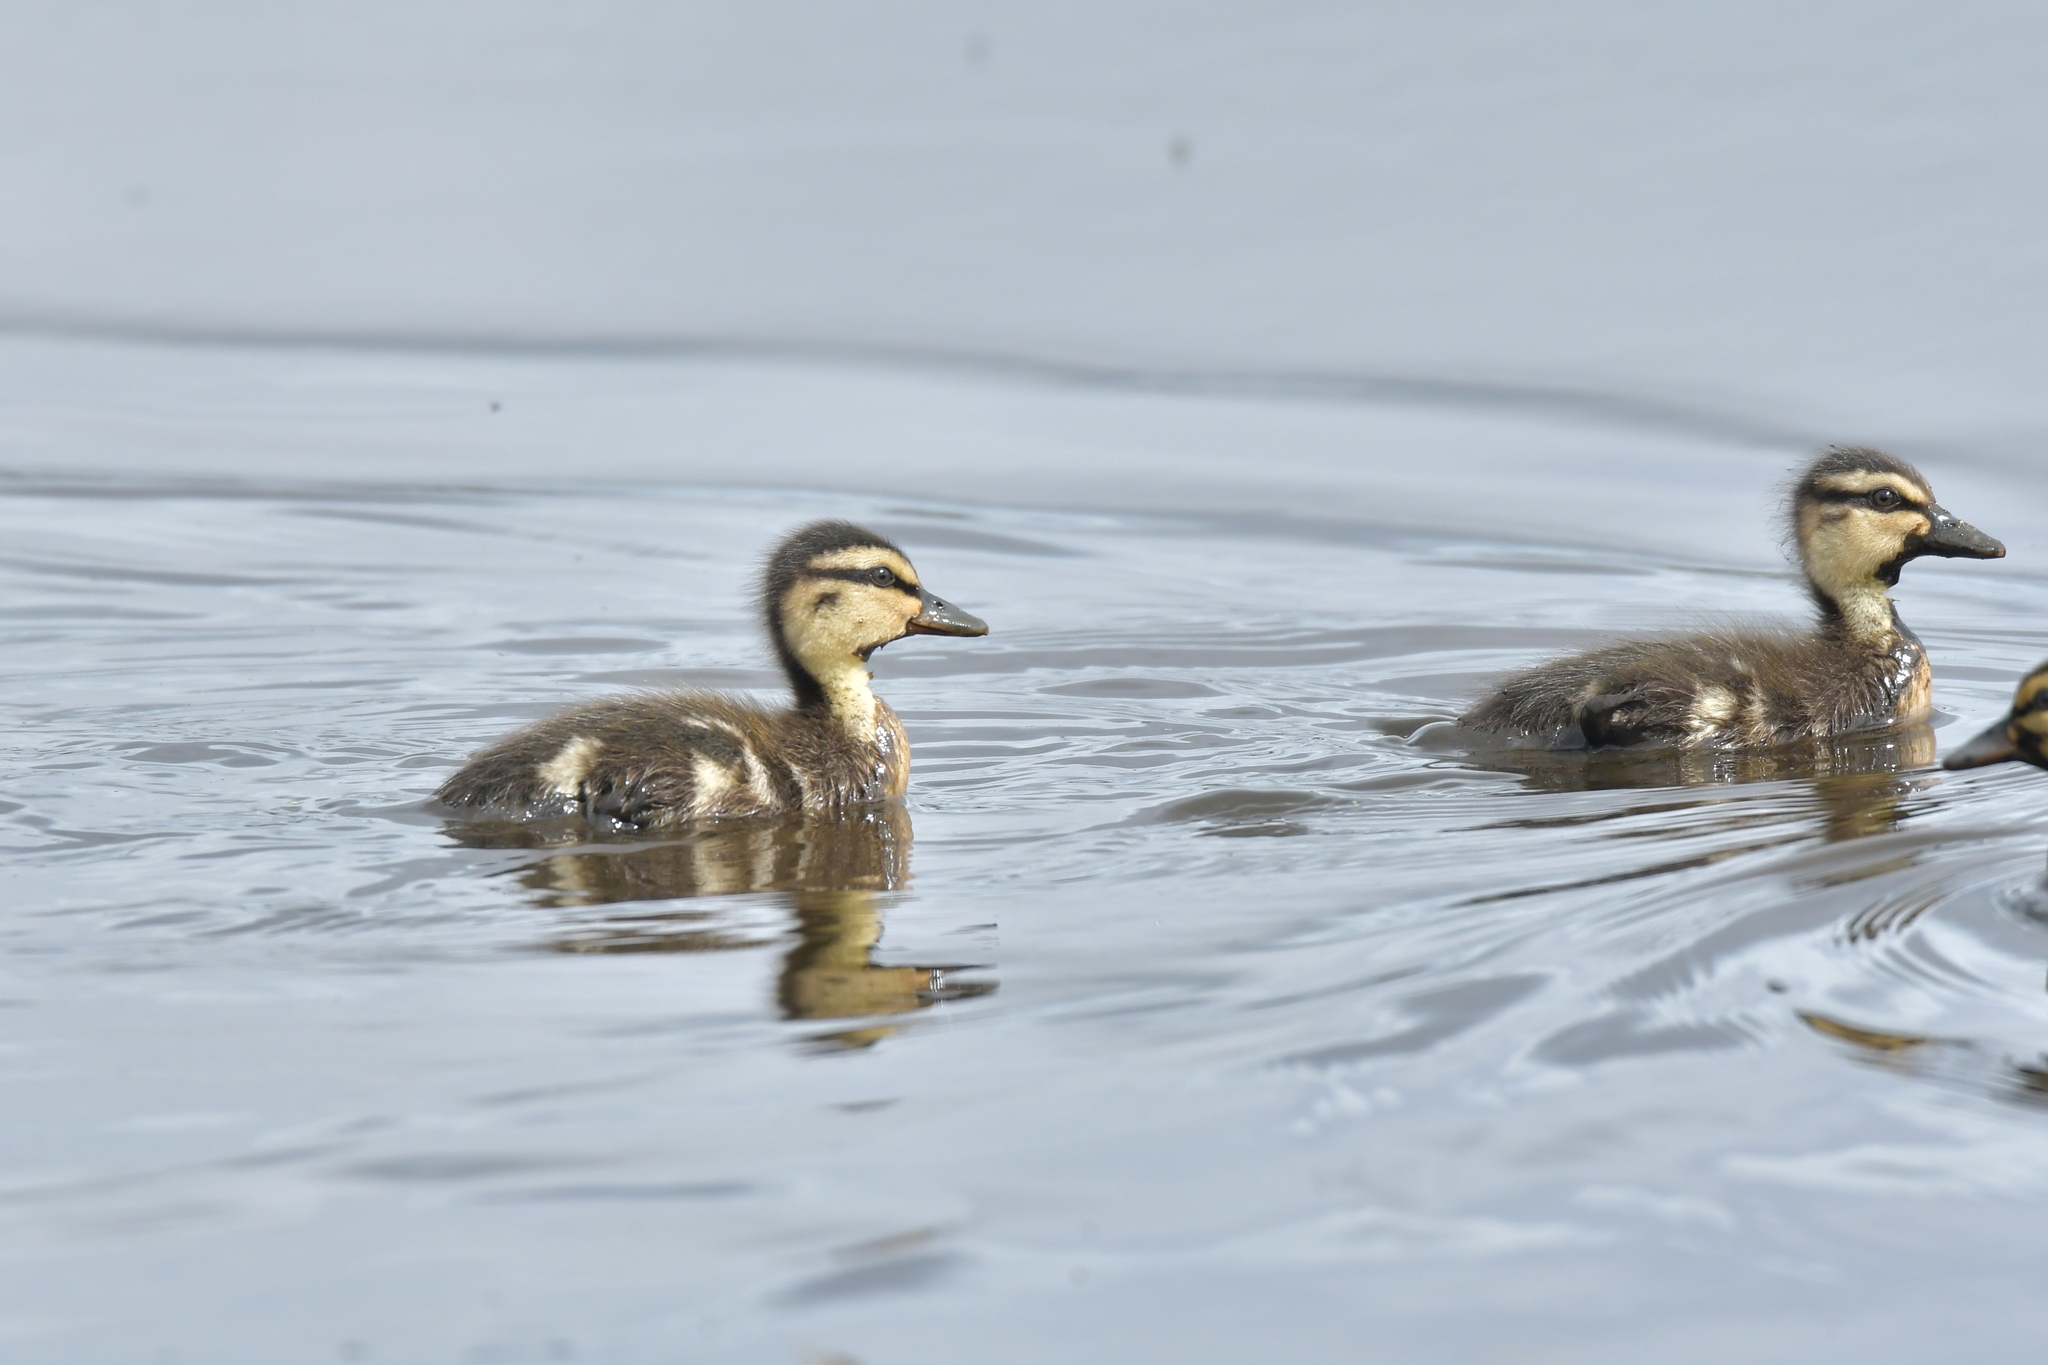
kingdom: Animalia
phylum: Chordata
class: Aves
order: Anseriformes
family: Anatidae
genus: Anas
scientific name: Anas
